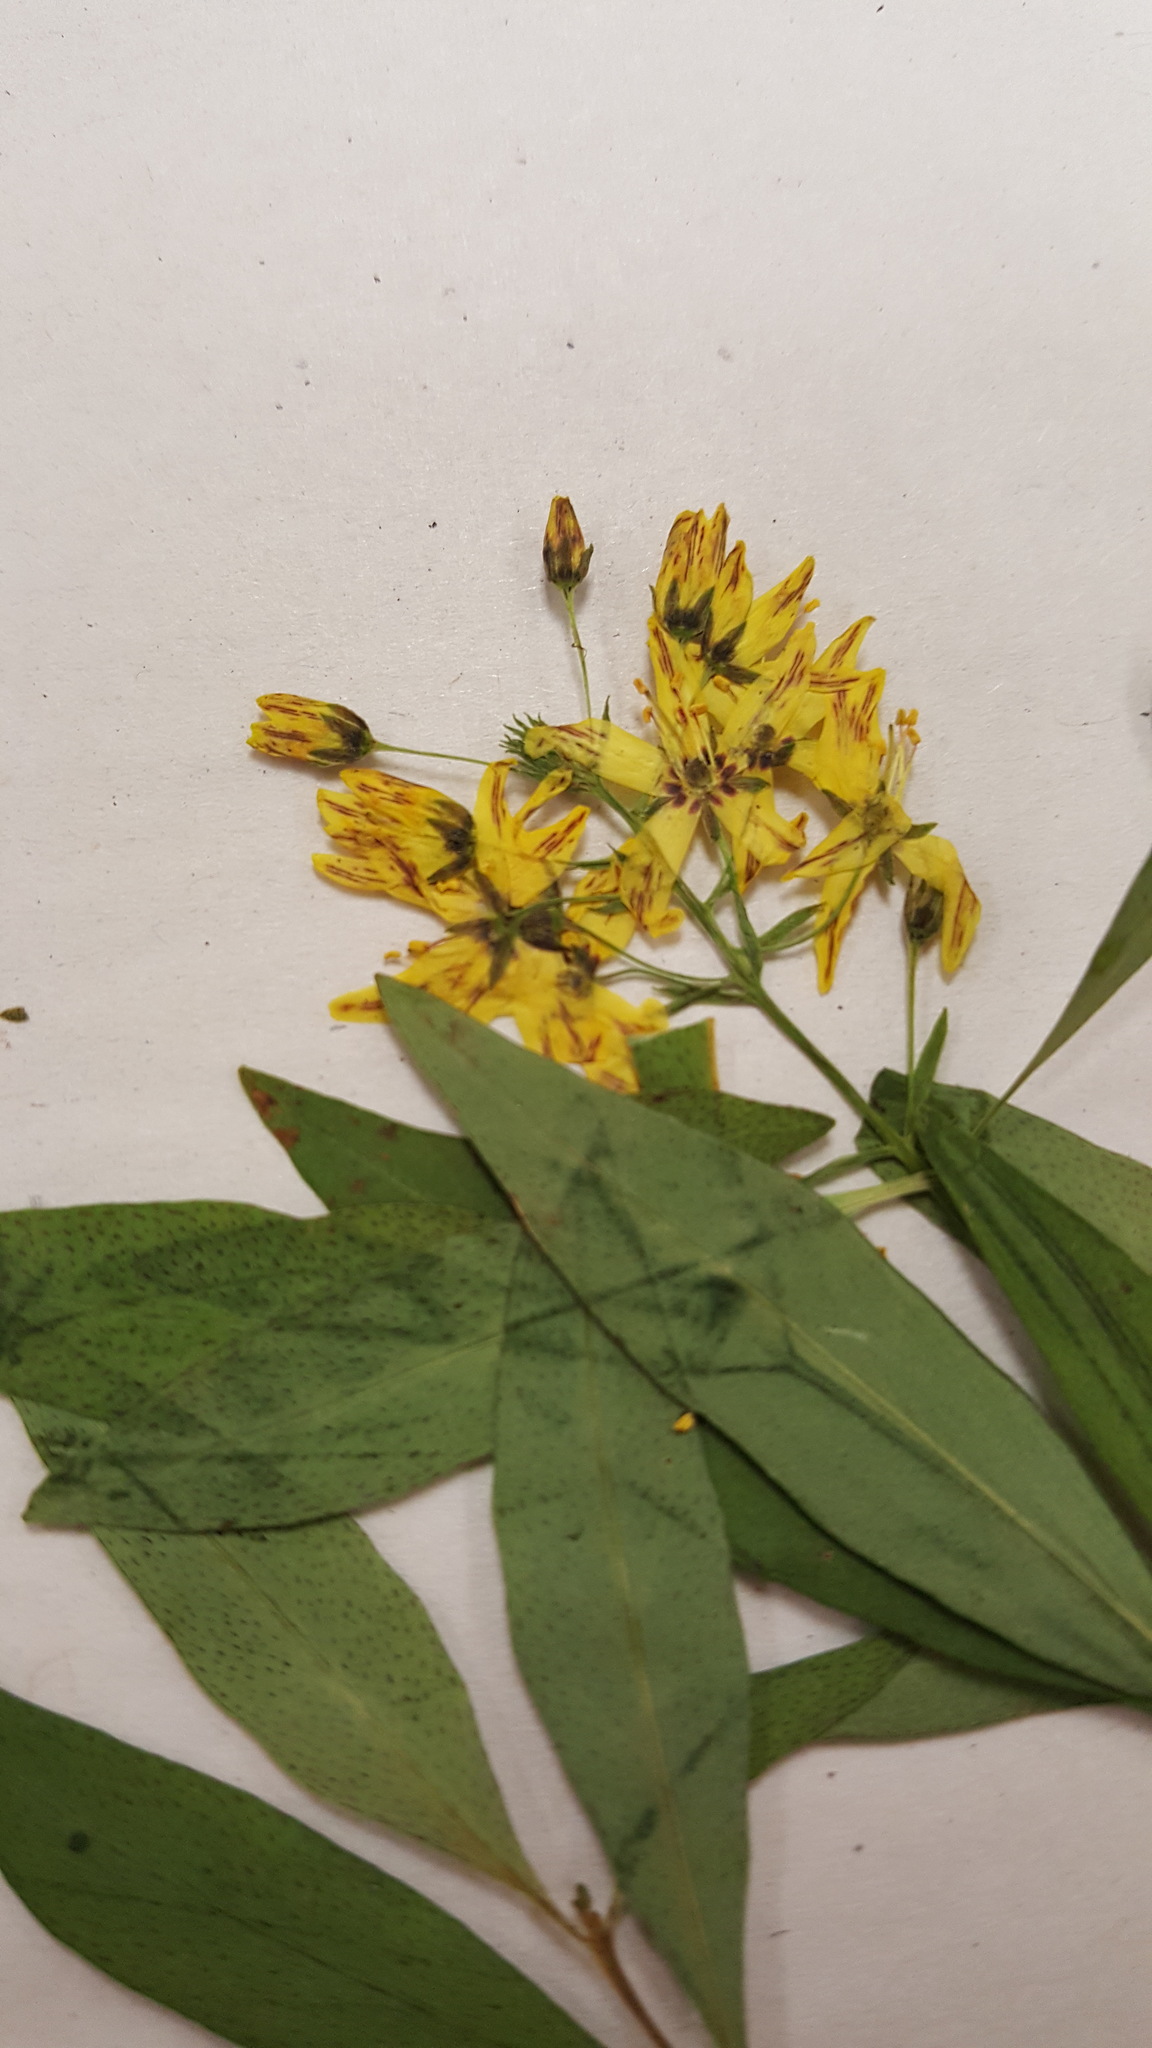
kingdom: Plantae
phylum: Tracheophyta
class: Magnoliopsida
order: Ericales
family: Primulaceae
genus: Lysimachia
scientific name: Lysimachia terrestris
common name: Lake loosestrife
